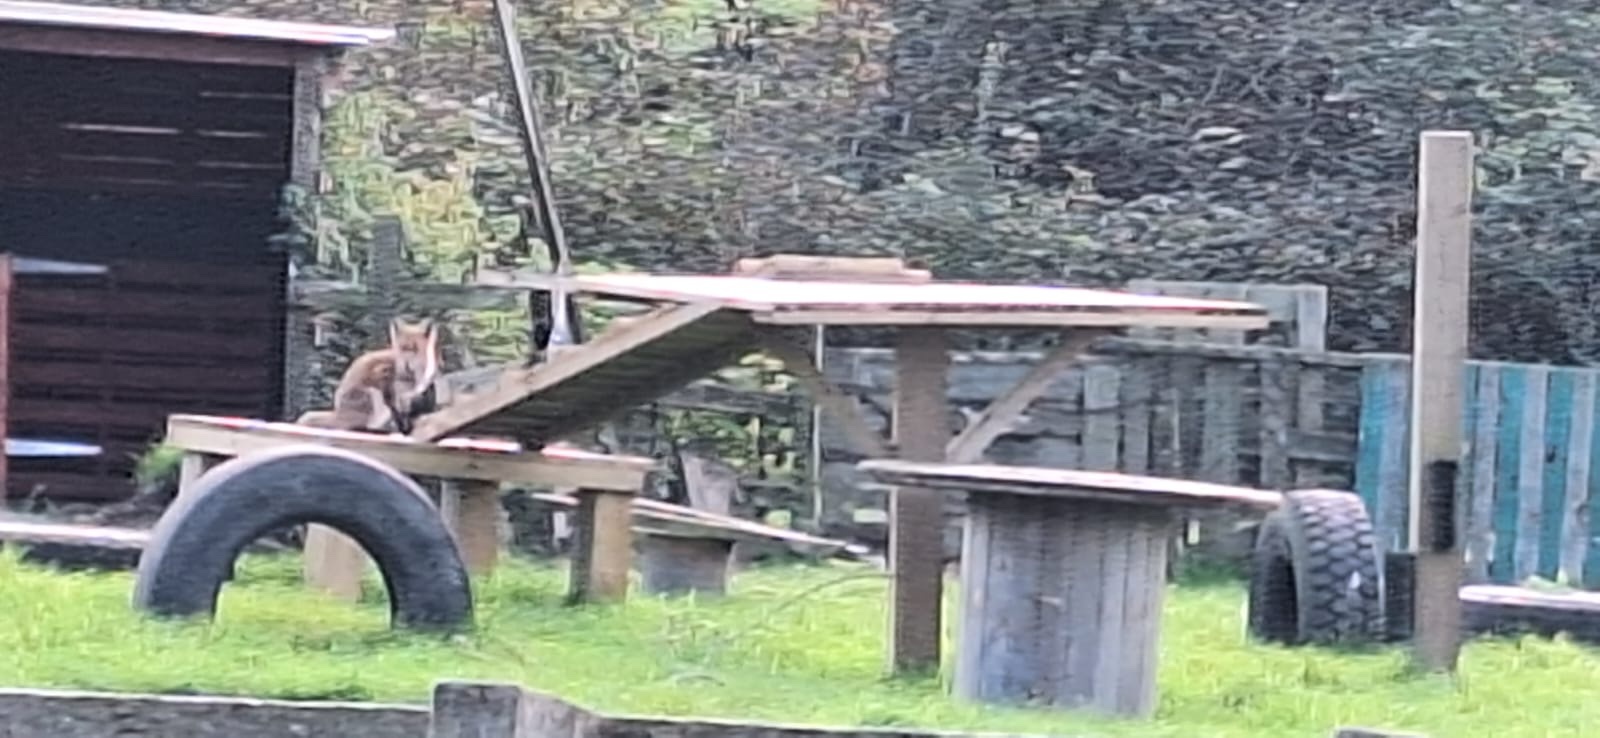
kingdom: Animalia
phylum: Chordata
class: Mammalia
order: Carnivora
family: Canidae
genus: Vulpes
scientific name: Vulpes vulpes
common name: Red fox
